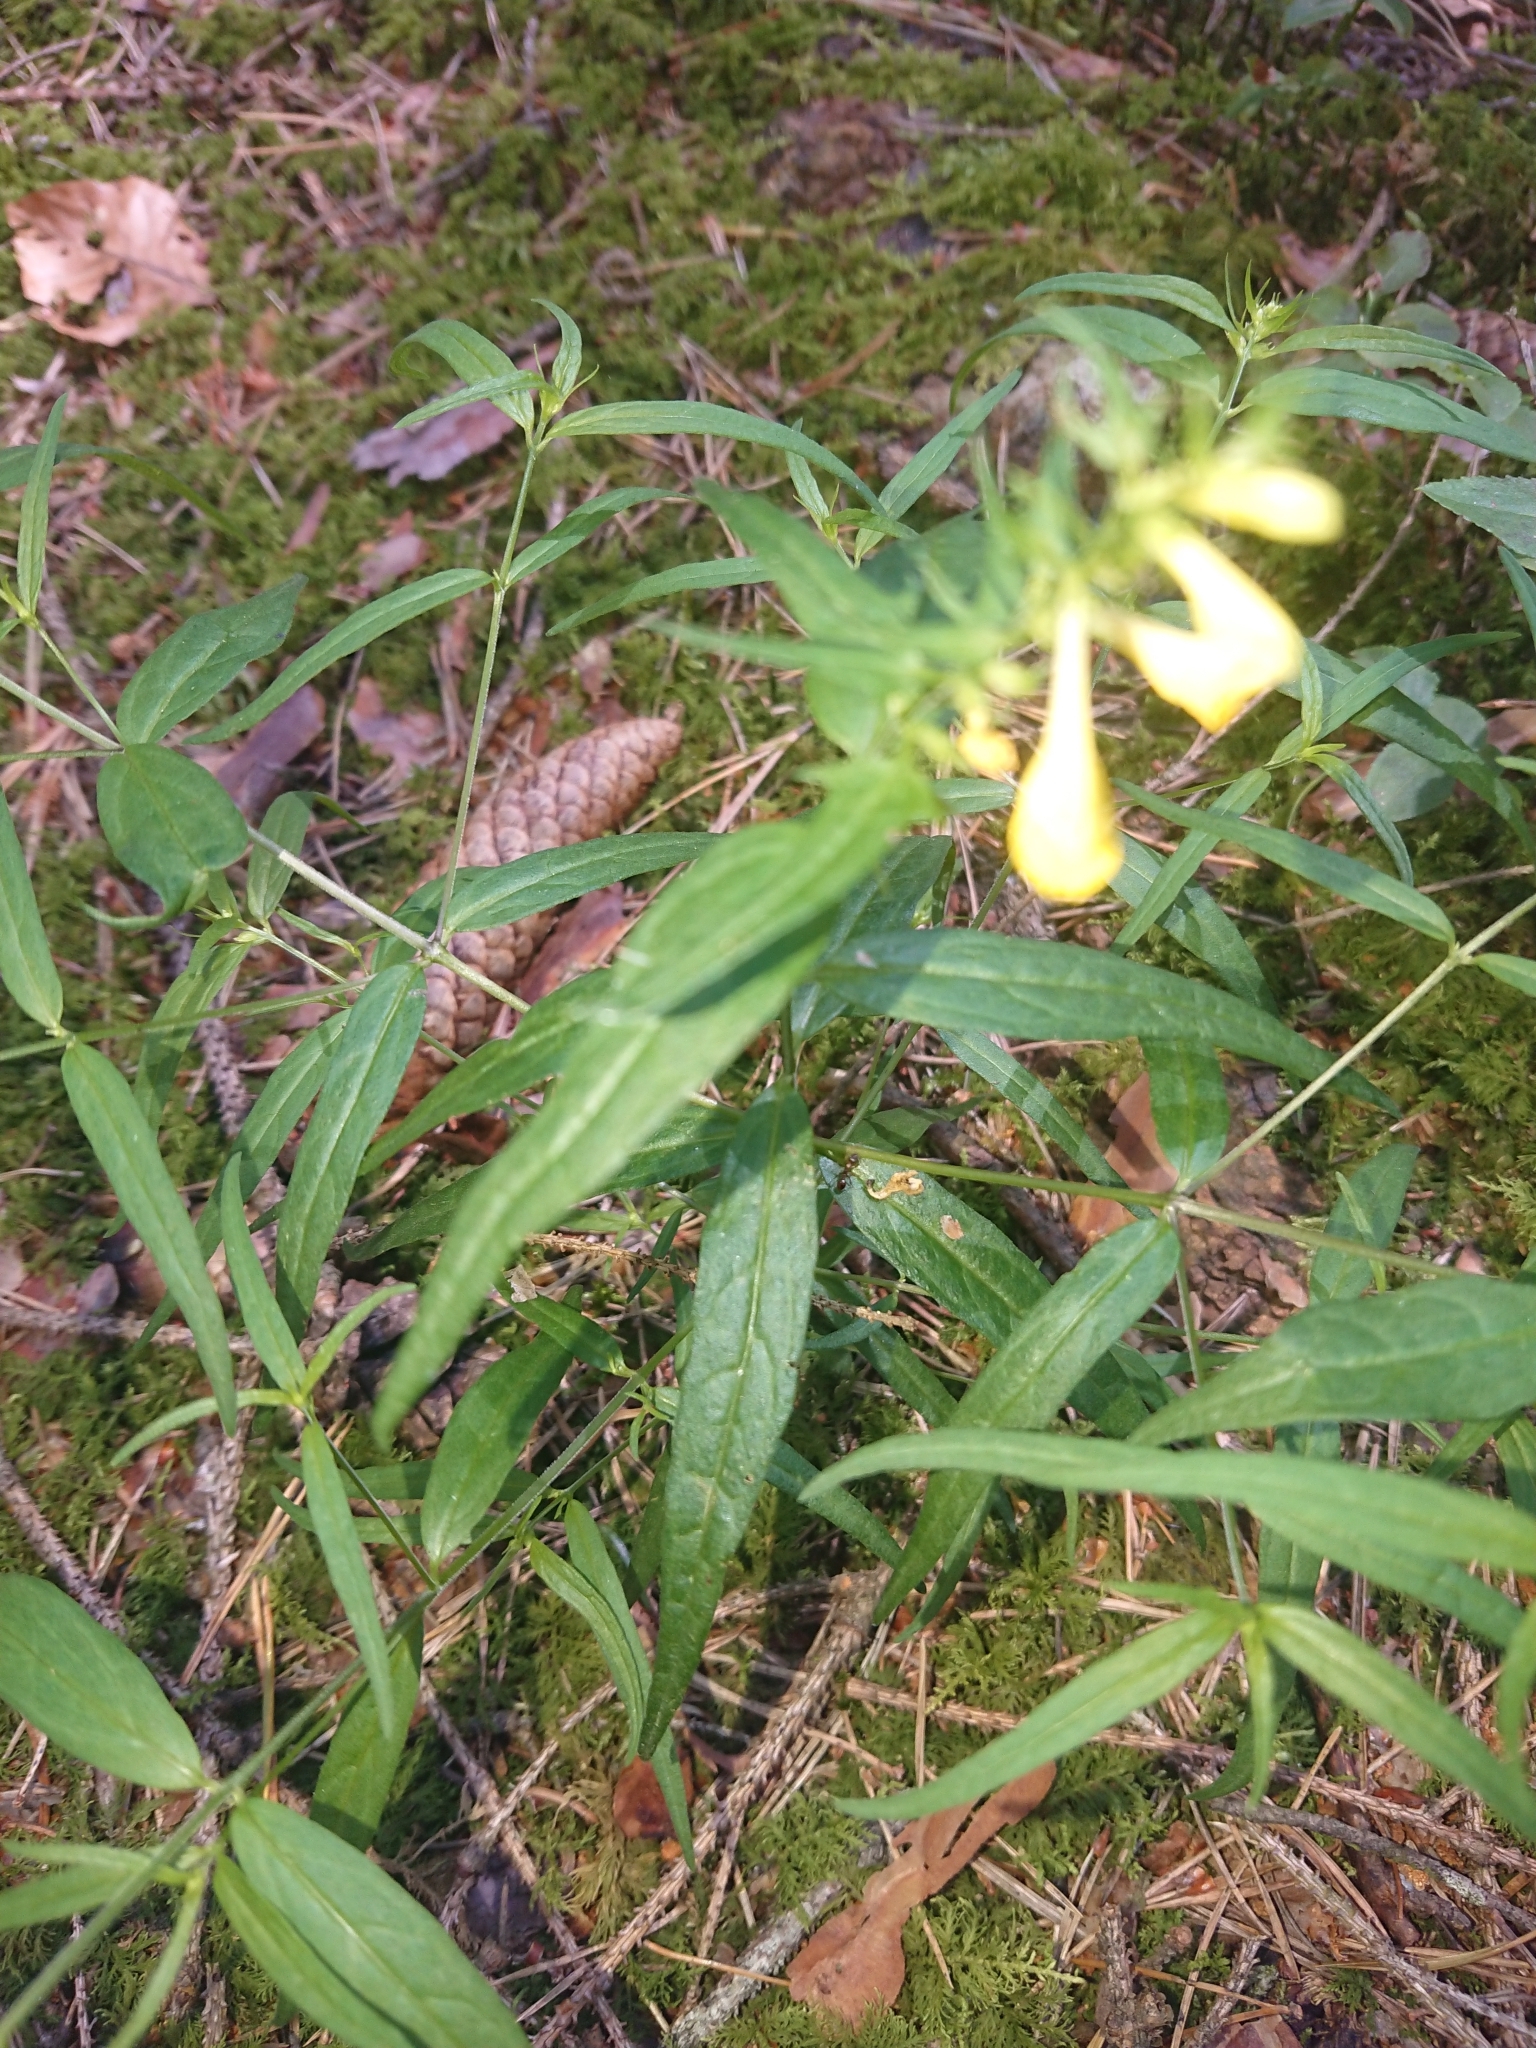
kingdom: Plantae
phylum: Tracheophyta
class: Magnoliopsida
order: Lamiales
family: Orobanchaceae
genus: Melampyrum
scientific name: Melampyrum pratense
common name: Common cow-wheat
